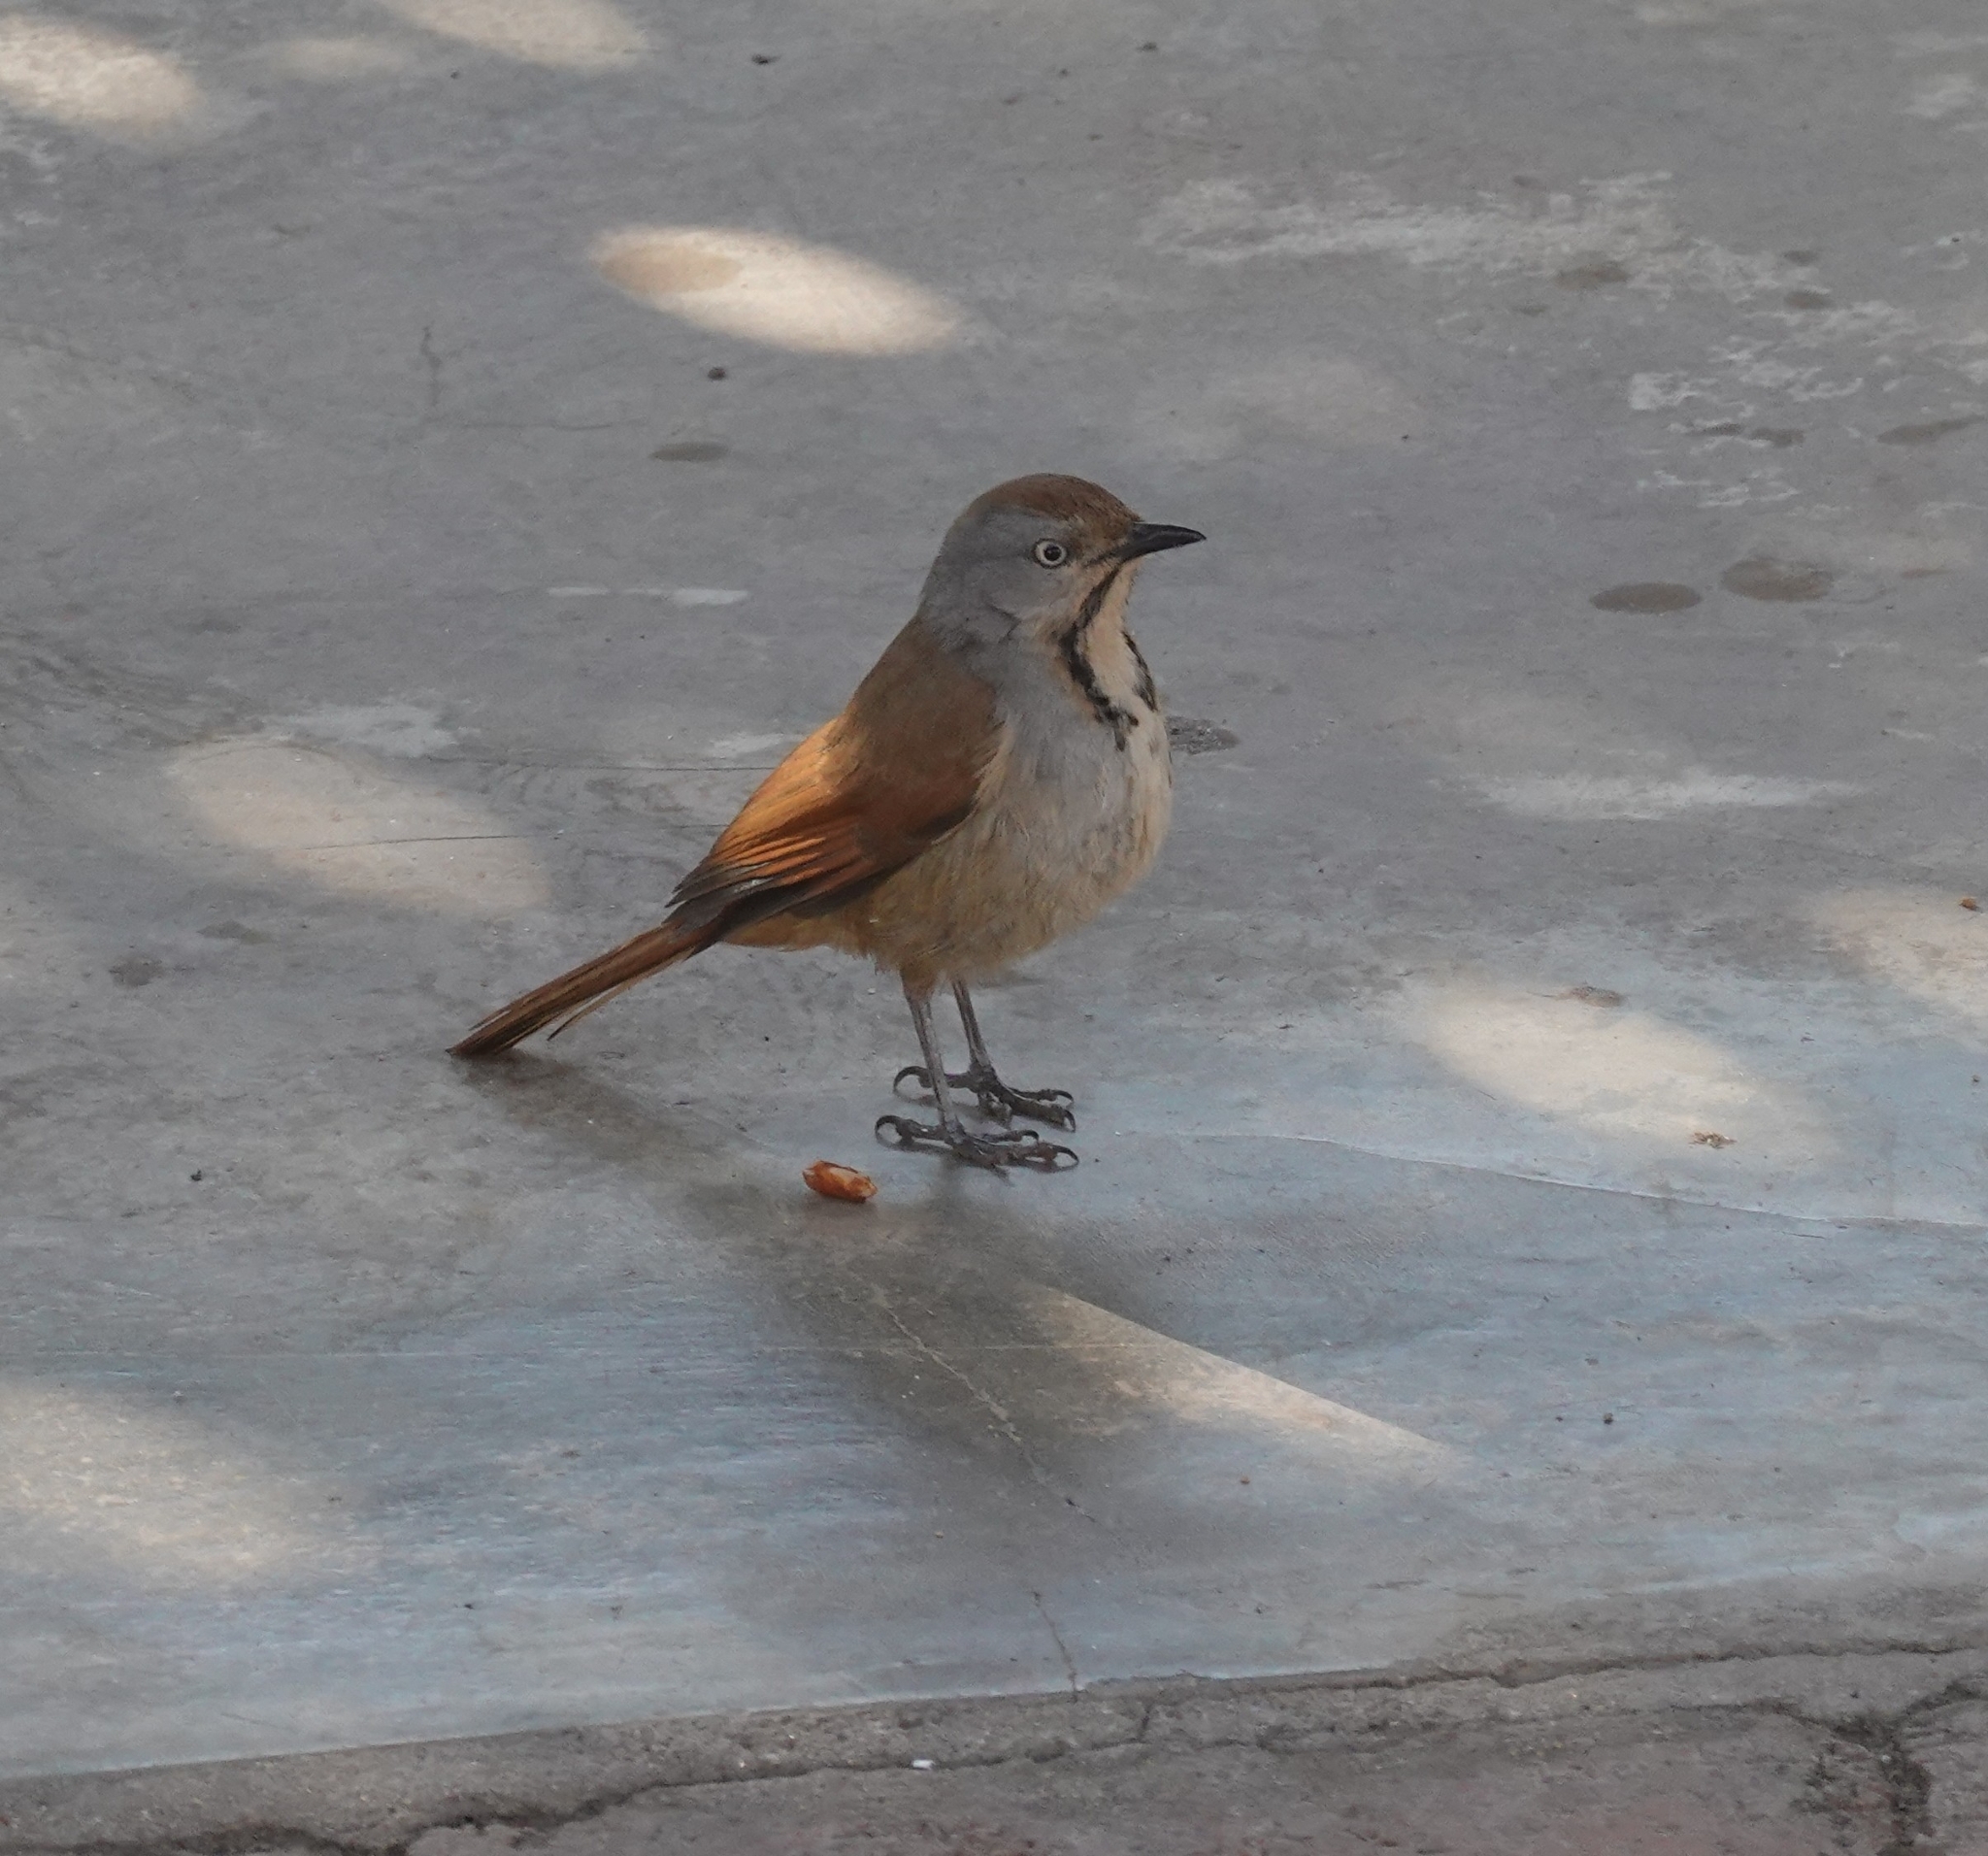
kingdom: Animalia
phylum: Chordata
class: Aves
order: Passeriformes
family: Muscicapidae
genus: Cichladusa
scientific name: Cichladusa arquata
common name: Collared palm thrush
